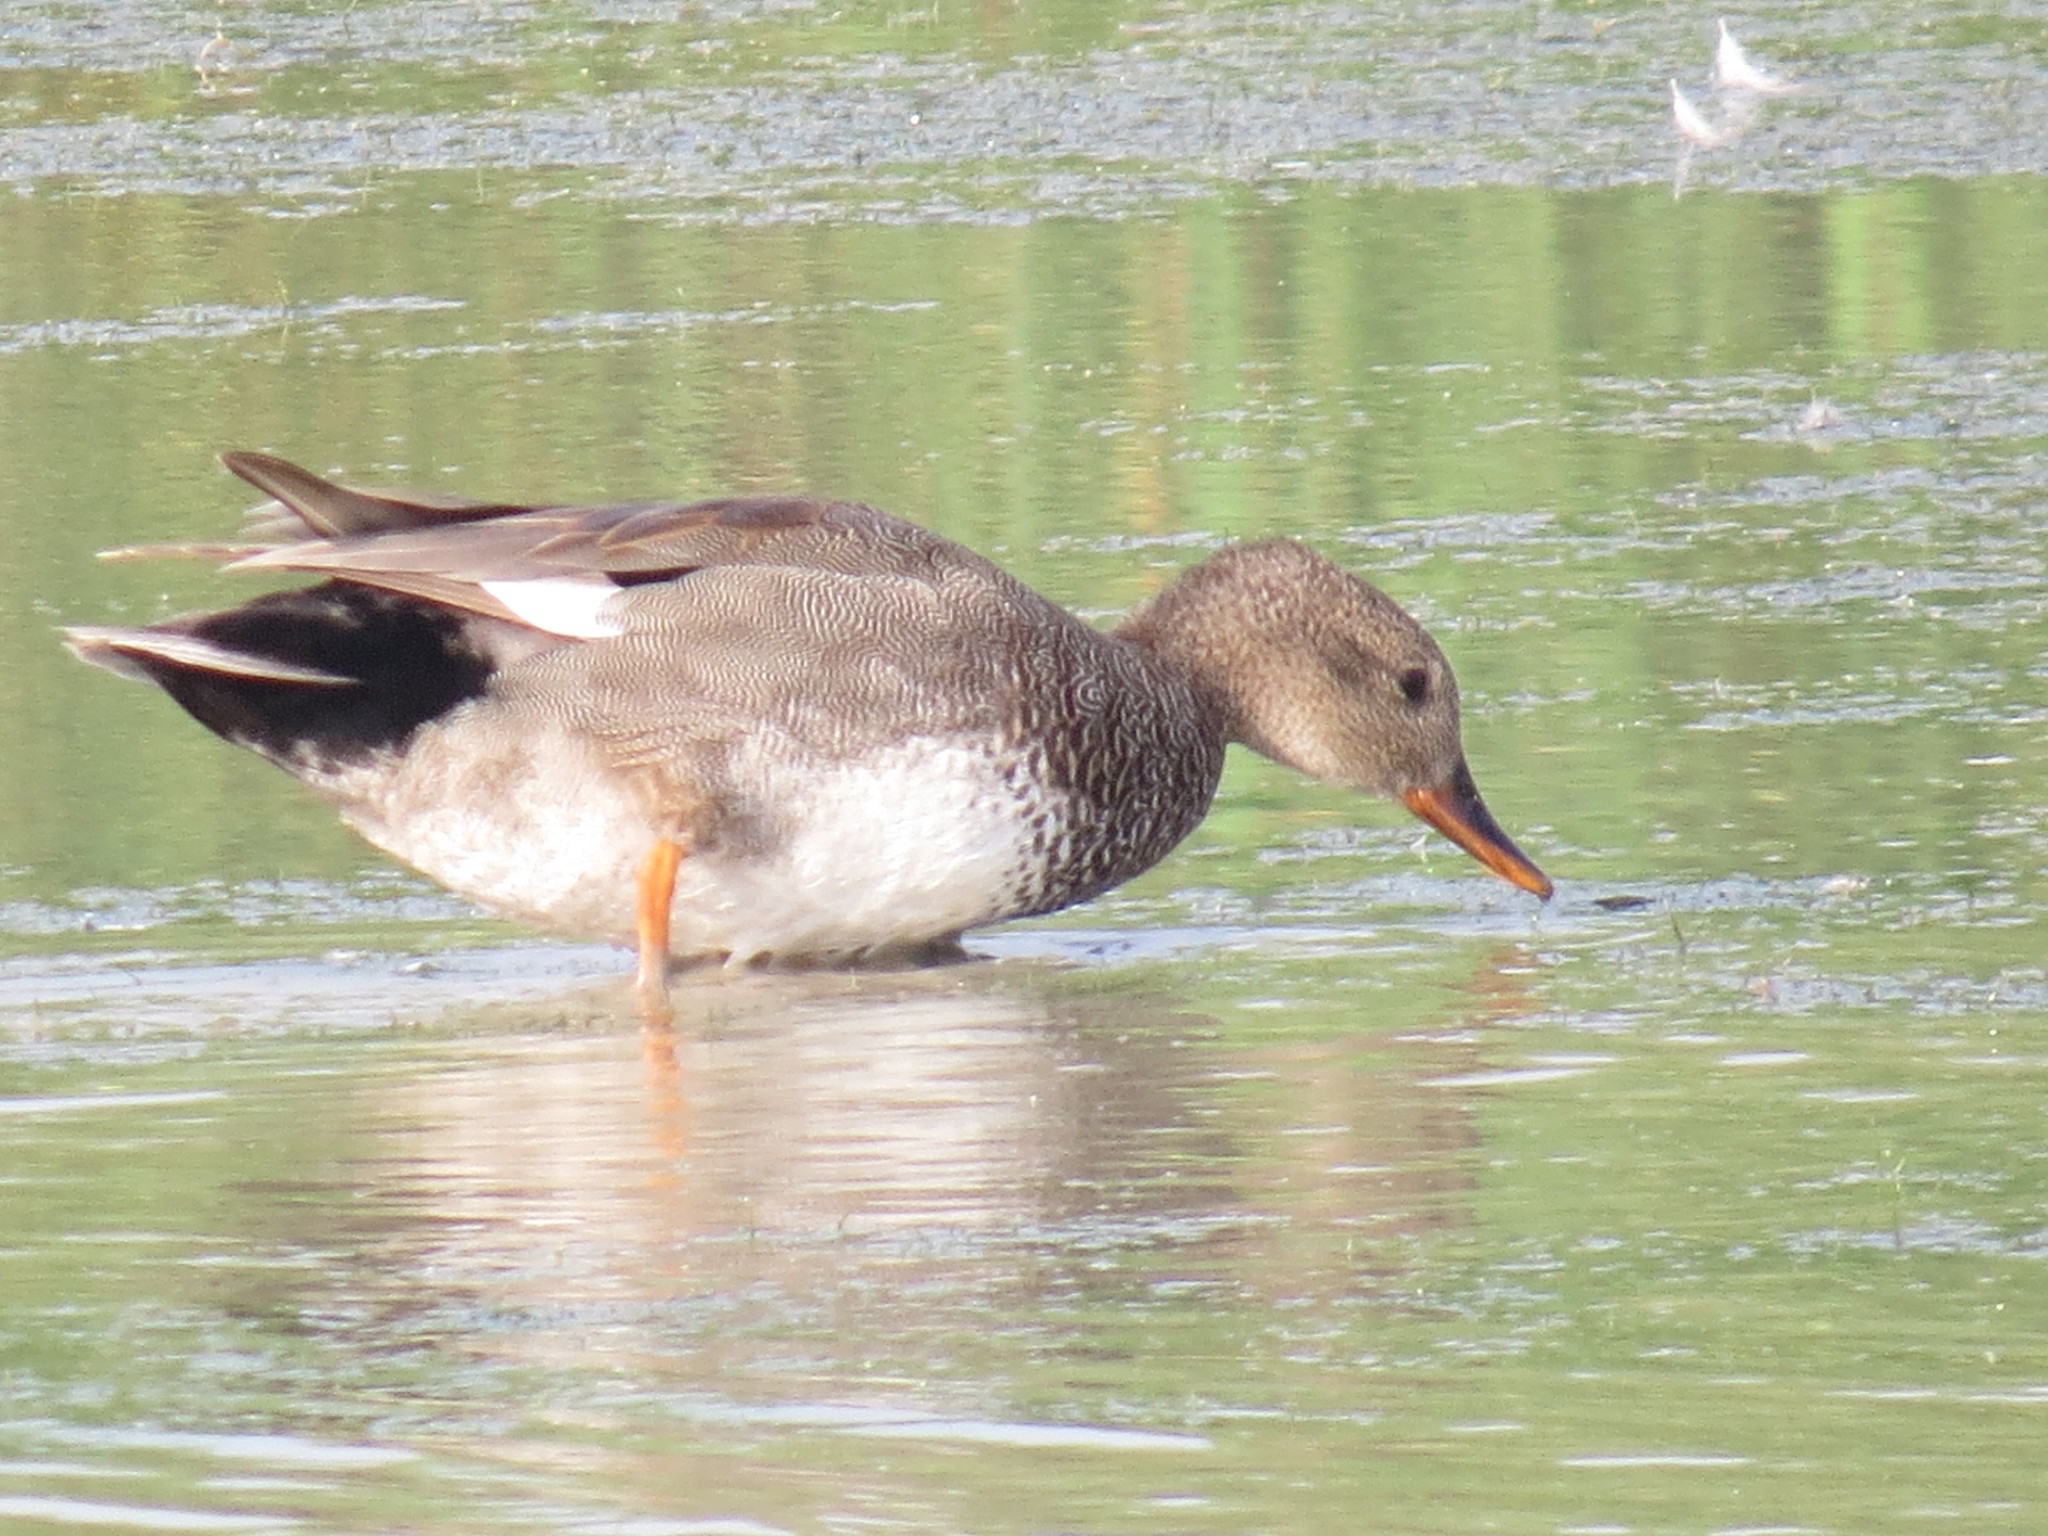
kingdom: Animalia
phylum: Chordata
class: Aves
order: Anseriformes
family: Anatidae
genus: Mareca
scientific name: Mareca strepera
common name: Gadwall
